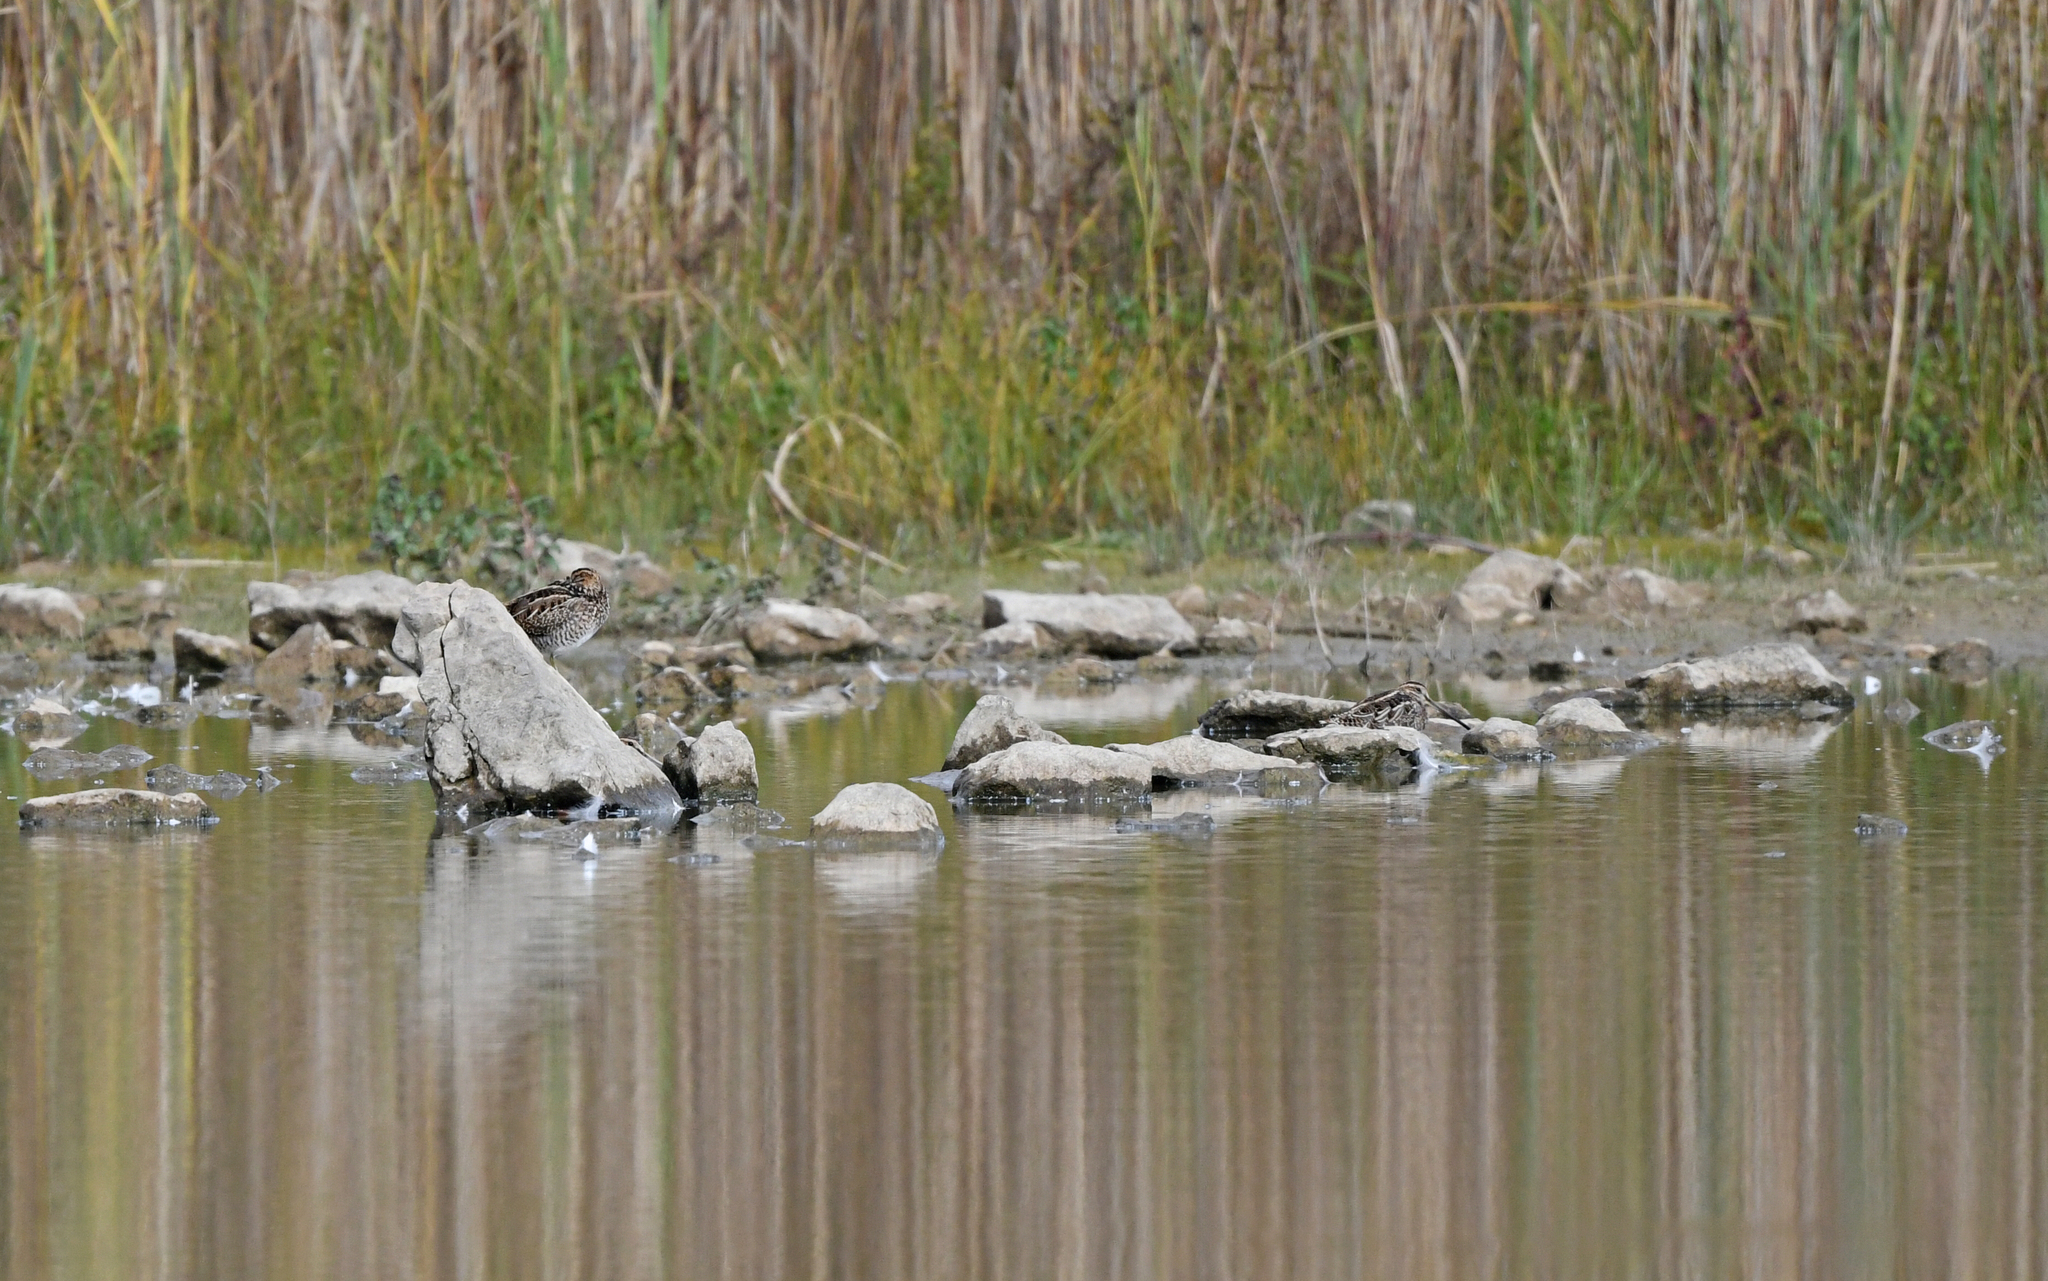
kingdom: Animalia
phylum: Chordata
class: Aves
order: Charadriiformes
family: Scolopacidae
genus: Gallinago
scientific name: Gallinago gallinago
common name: Common snipe
